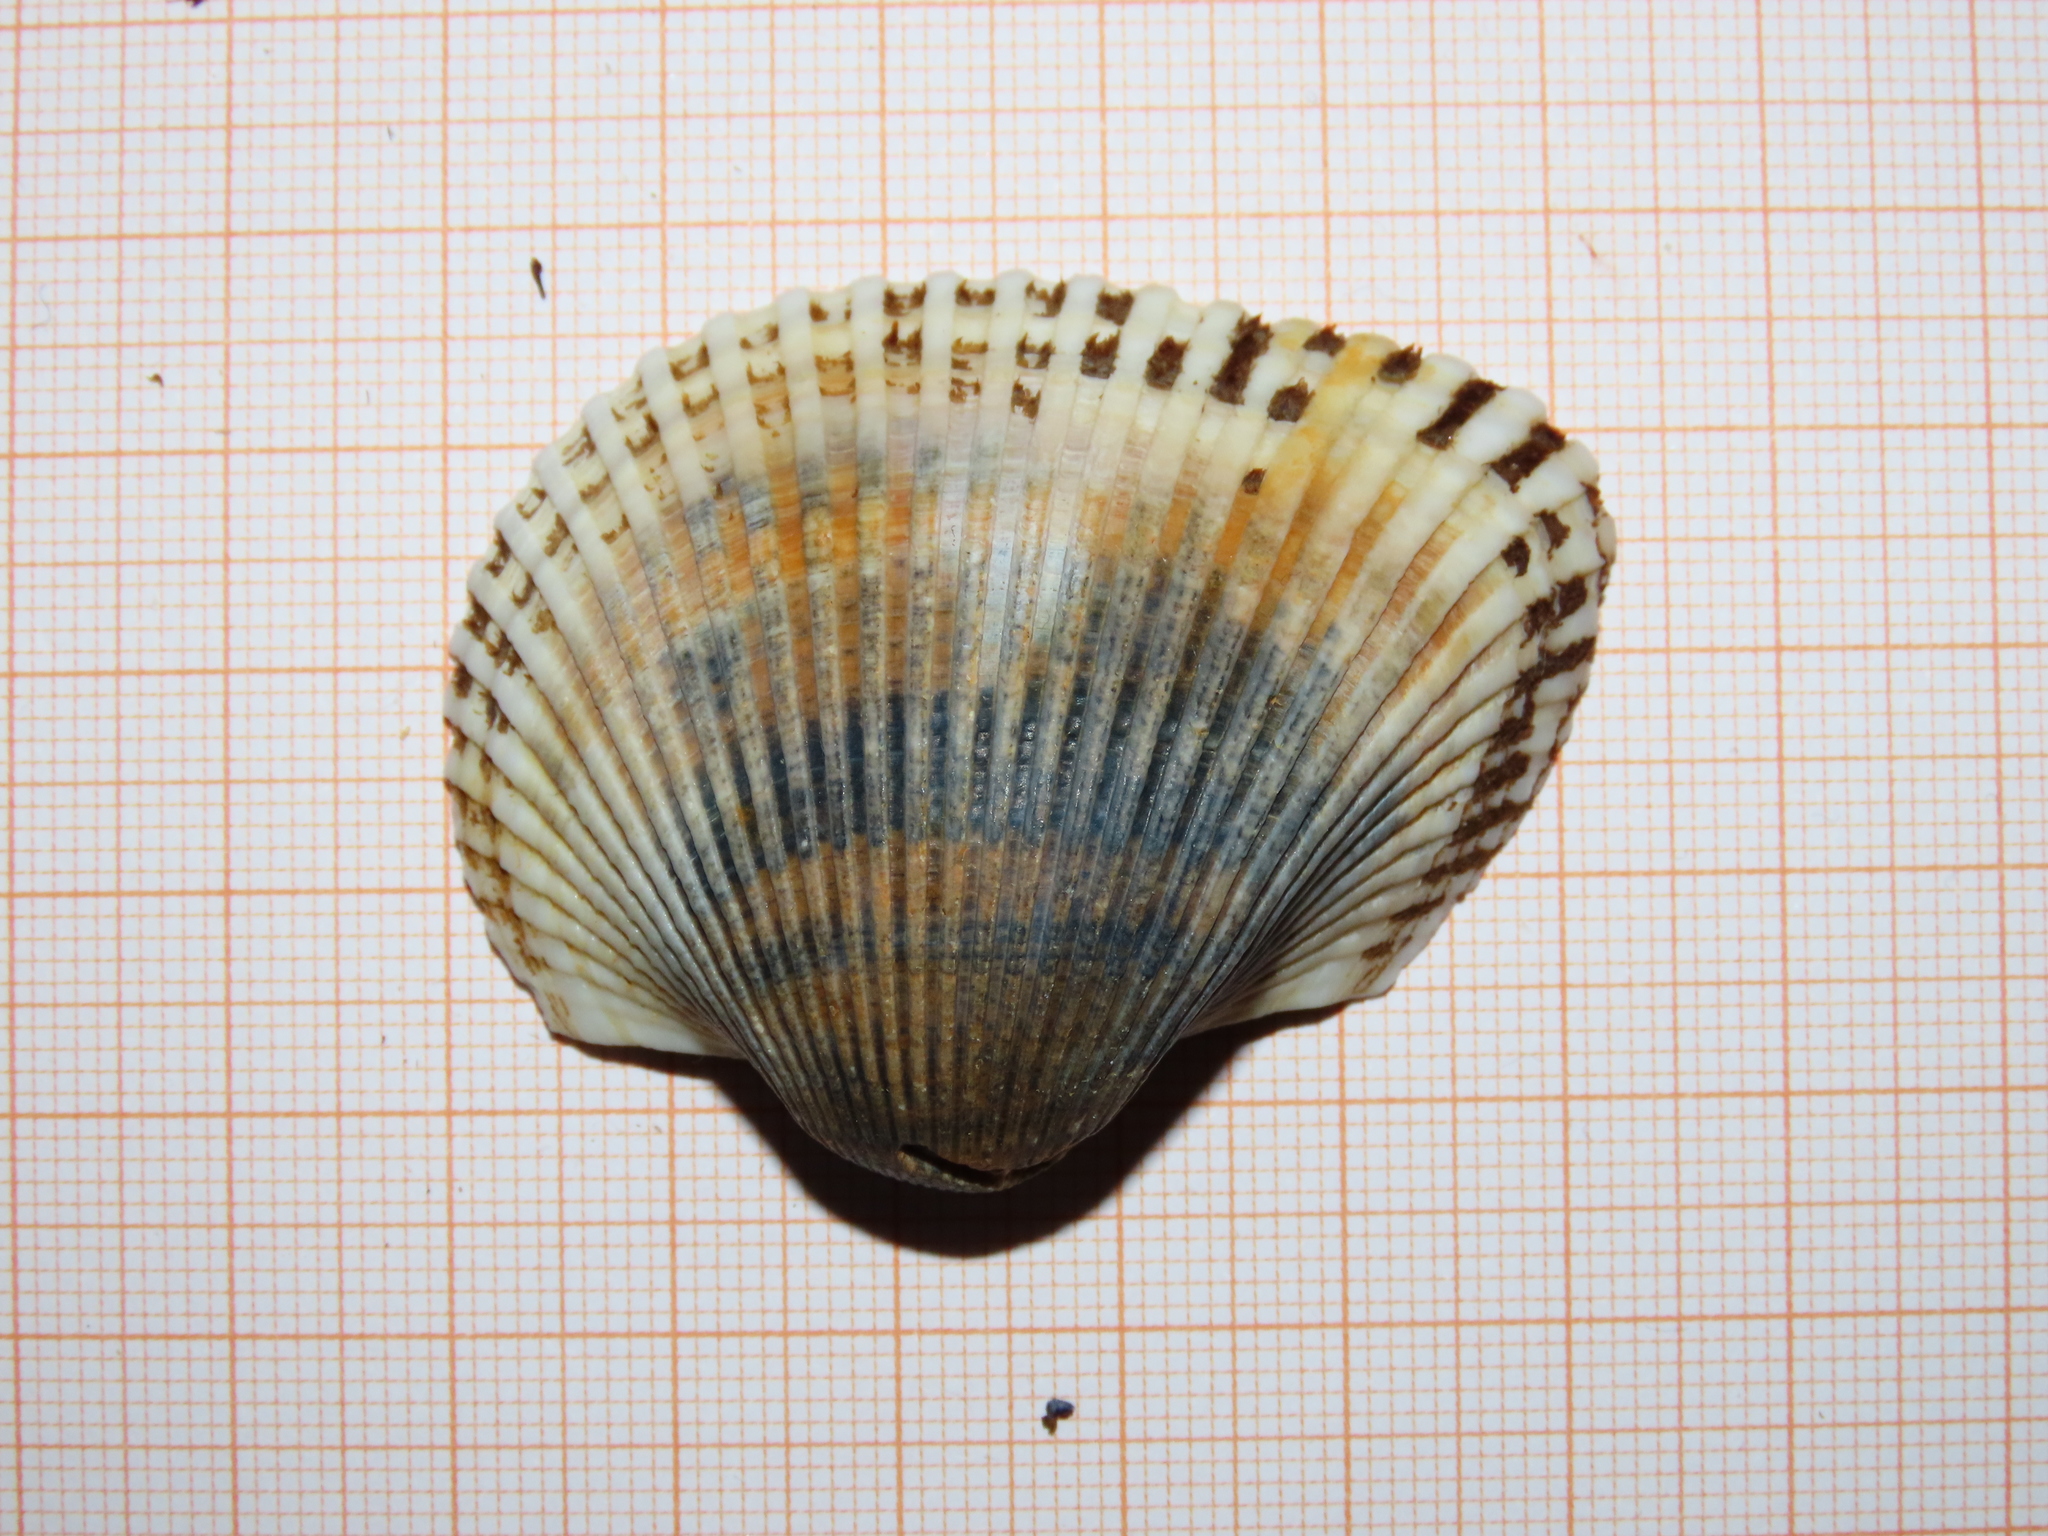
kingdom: Animalia
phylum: Mollusca
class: Bivalvia
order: Arcida
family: Arcidae
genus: Anadara
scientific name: Anadara kagoshimensis
